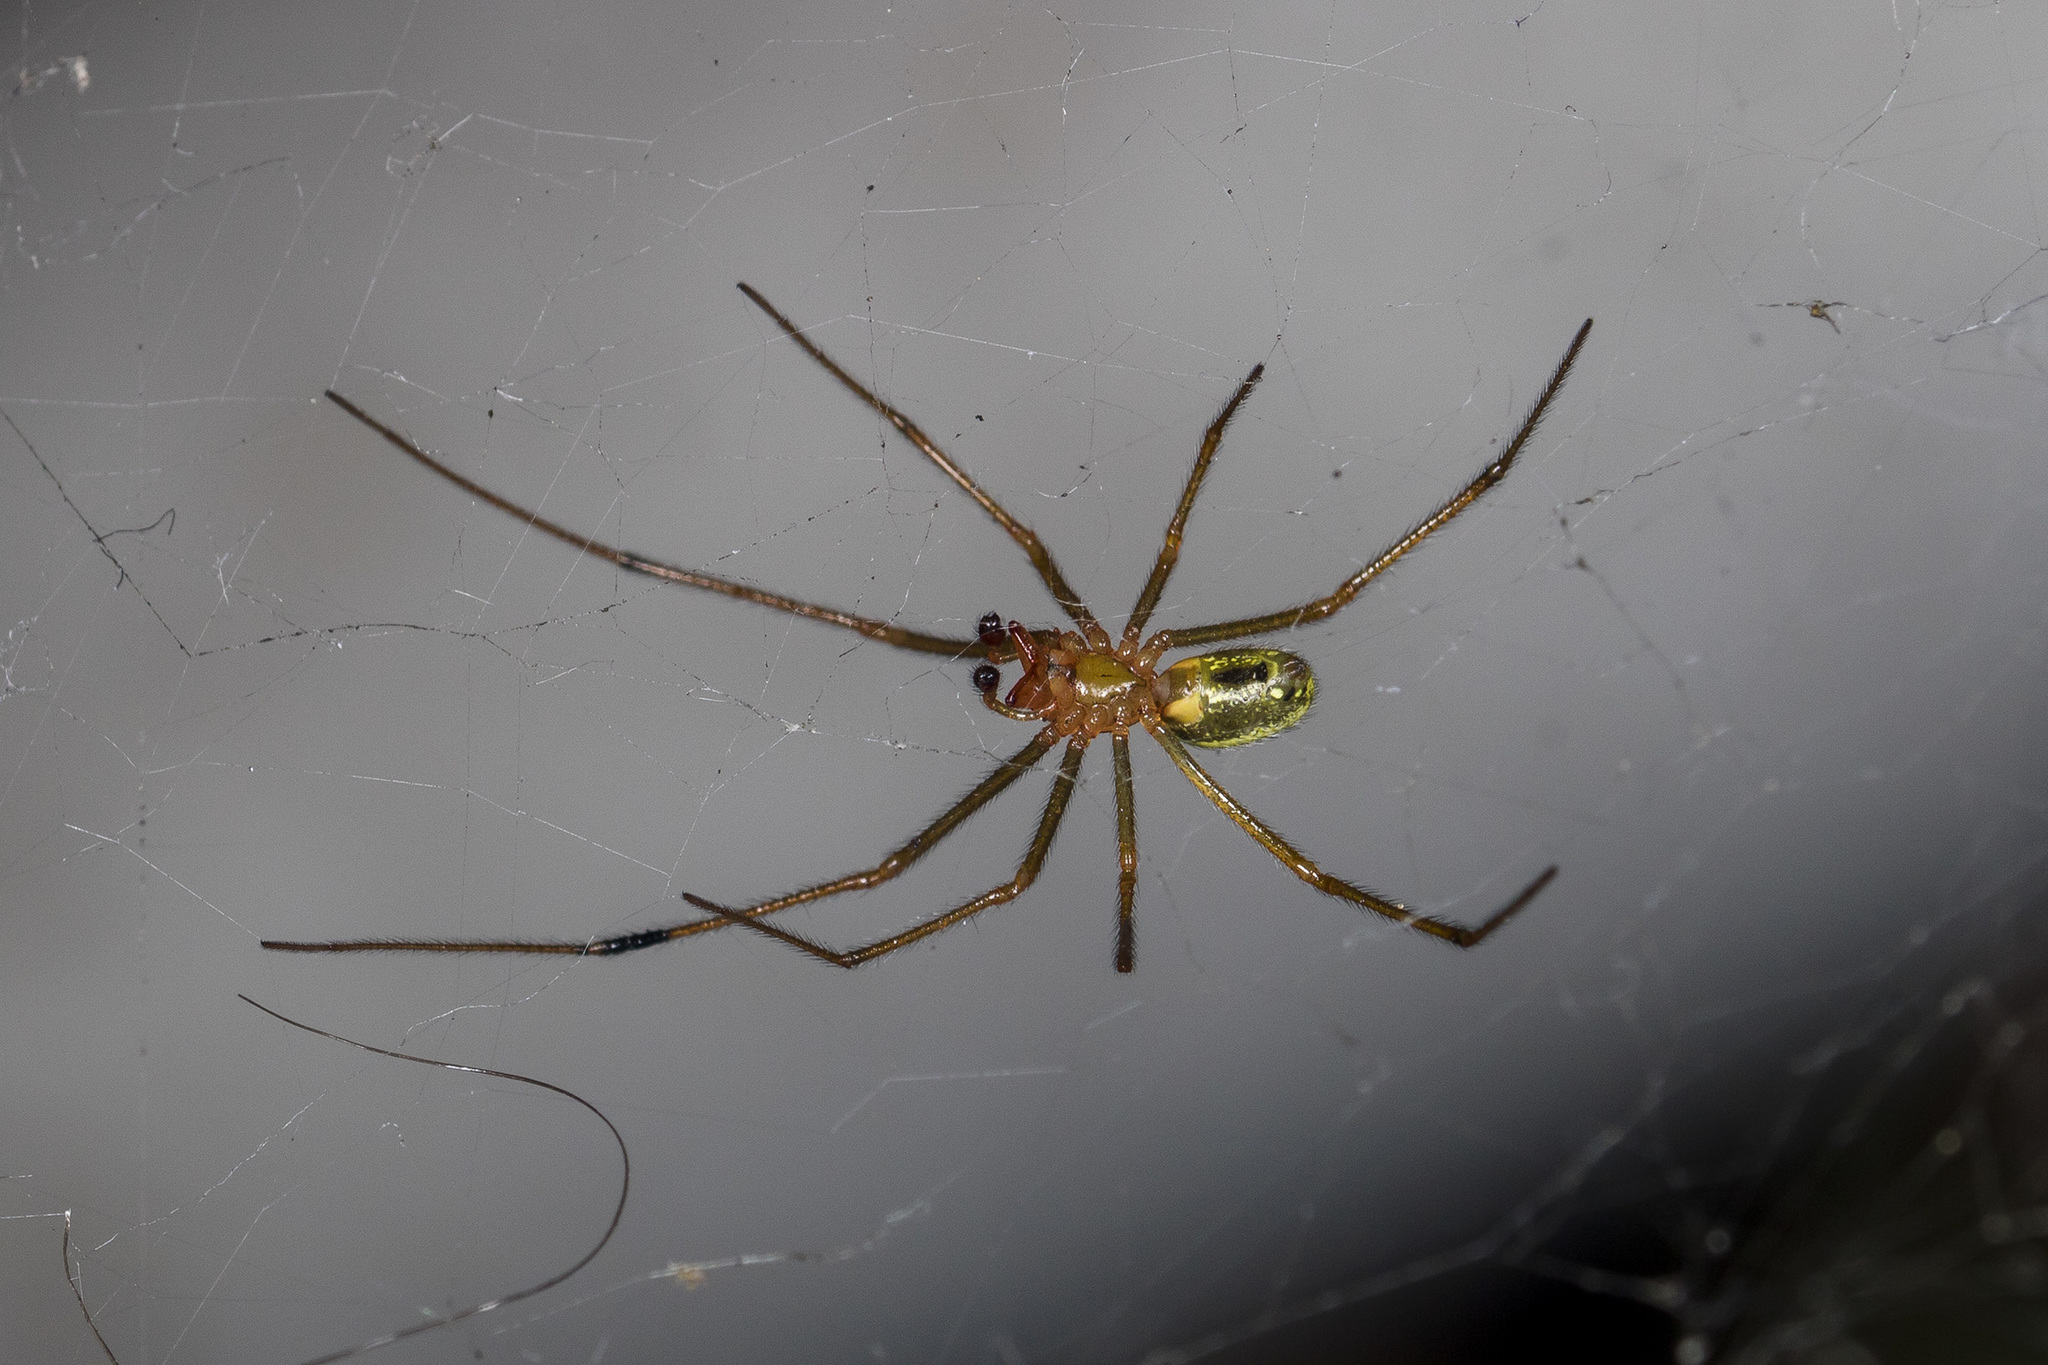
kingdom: Animalia
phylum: Arthropoda
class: Arachnida
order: Araneae
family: Theridiidae
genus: Enoplognatha
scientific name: Enoplognatha latimana
